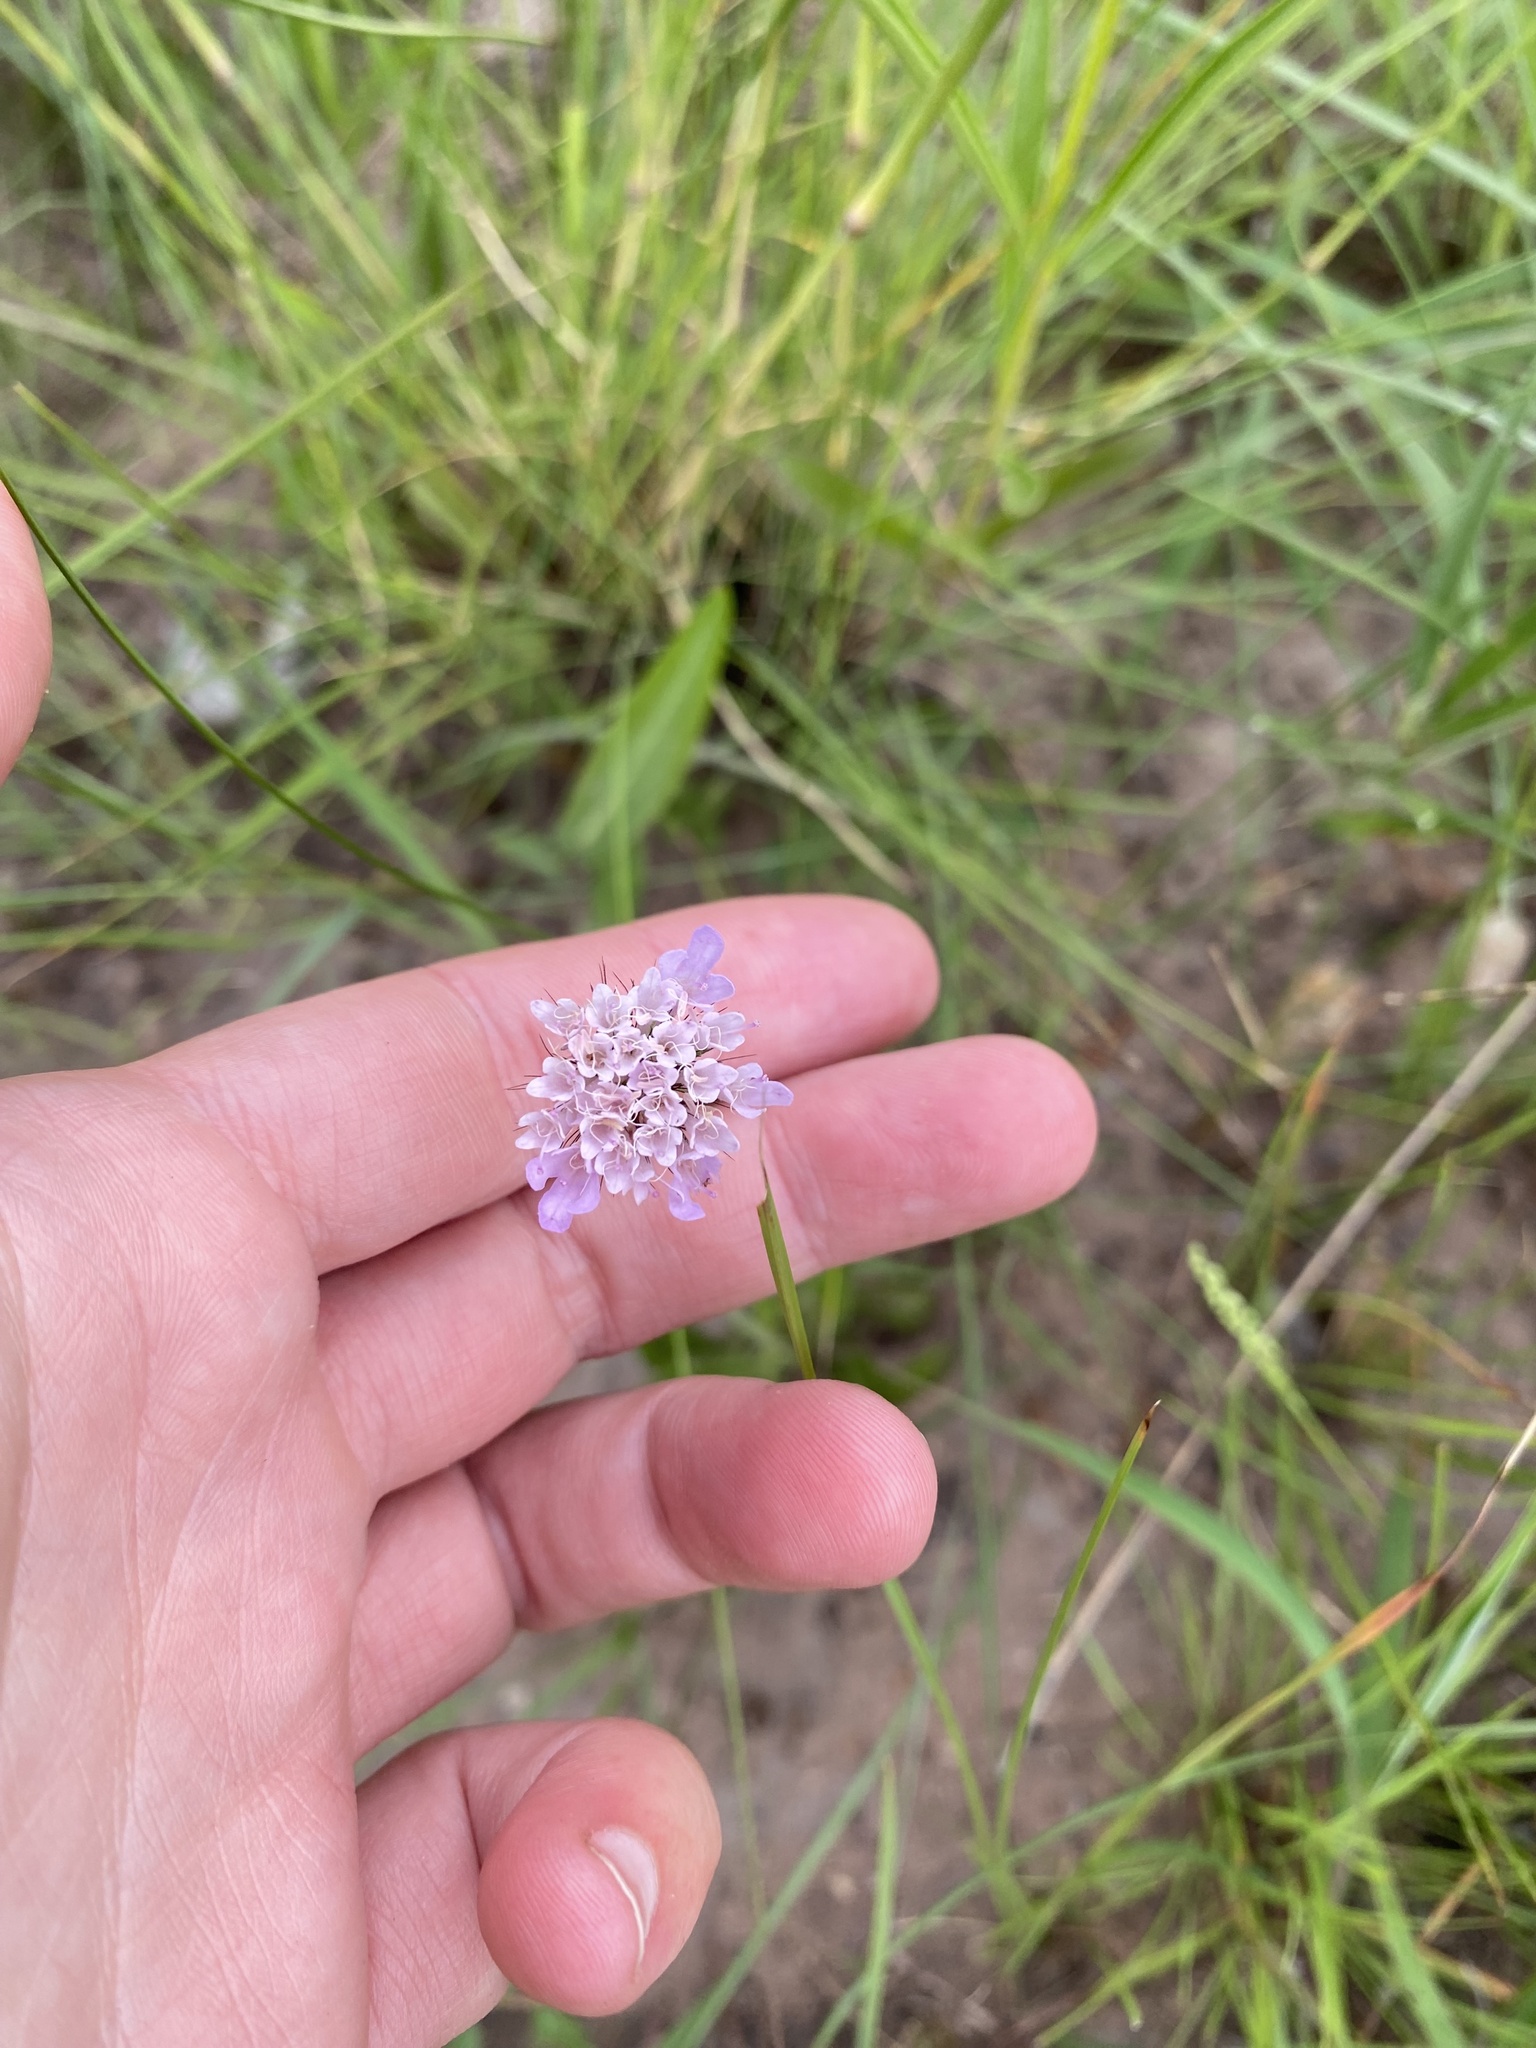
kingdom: Plantae
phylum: Tracheophyta
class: Magnoliopsida
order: Dipsacales
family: Caprifoliaceae
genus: Scabiosa
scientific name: Scabiosa columbaria
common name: Small scabious
